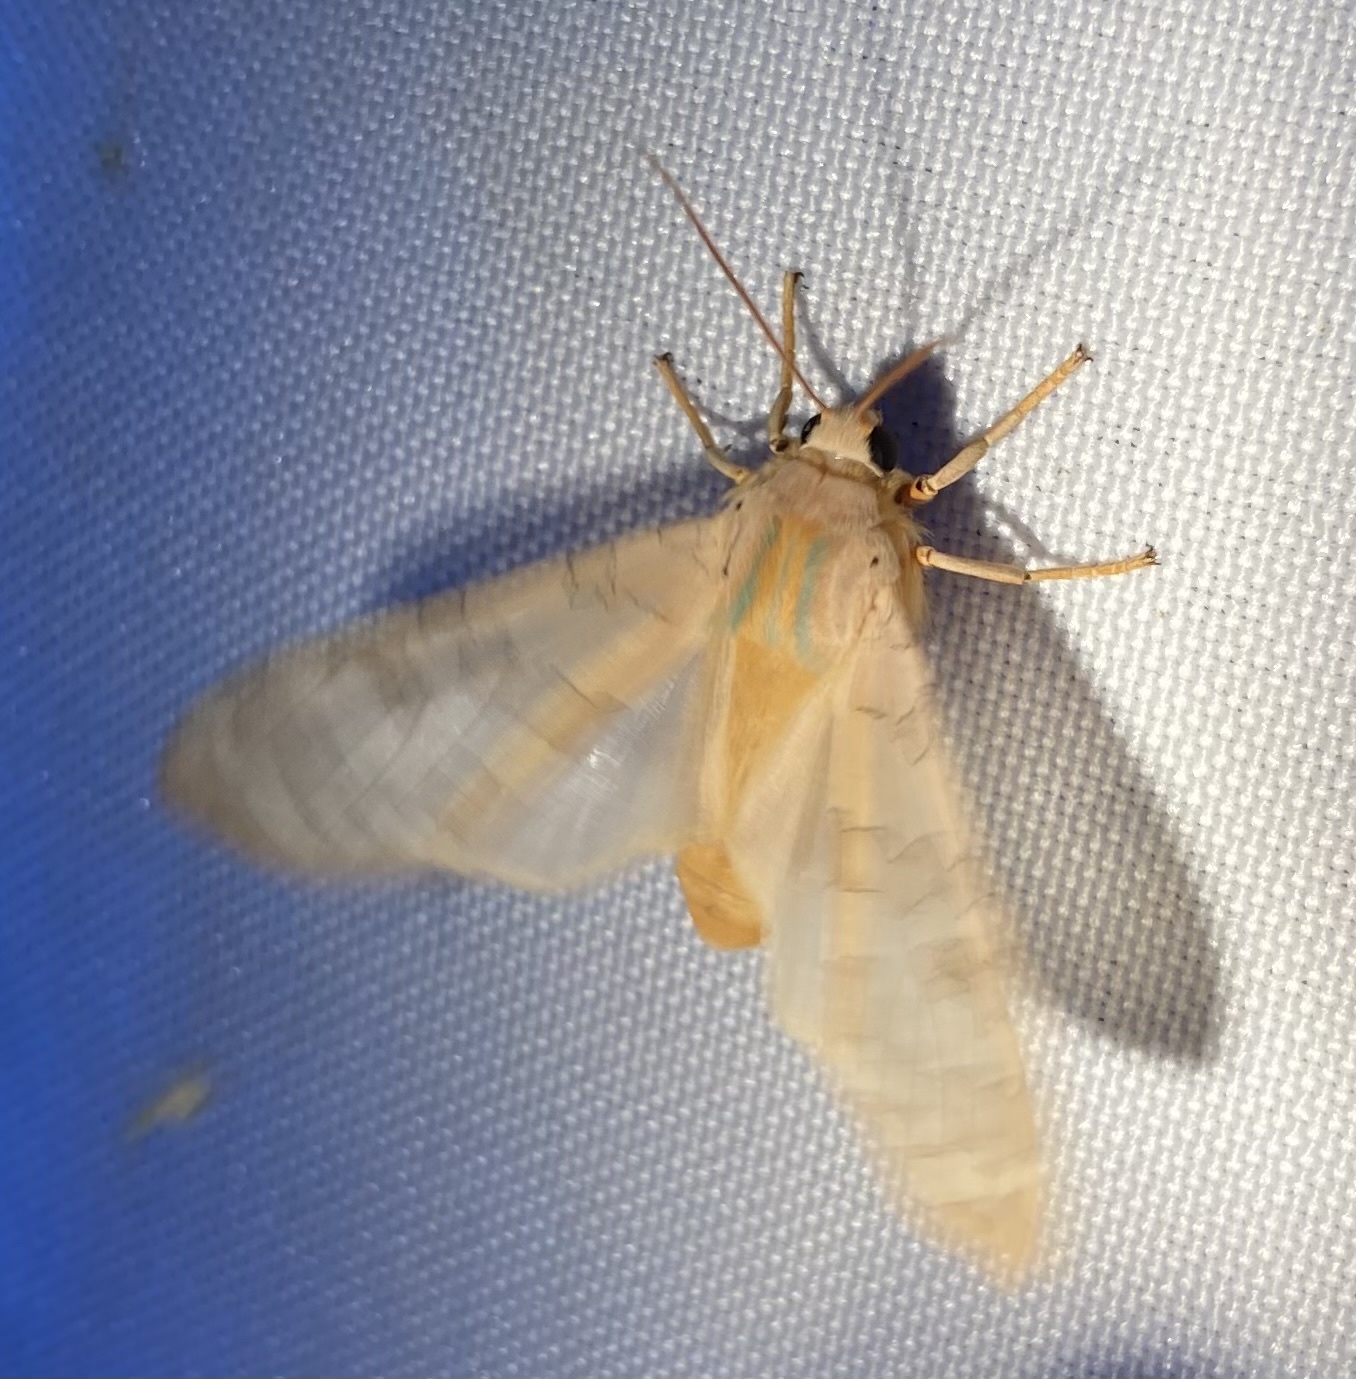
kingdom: Animalia
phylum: Arthropoda
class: Insecta
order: Lepidoptera
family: Erebidae
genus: Halysidota
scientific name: Halysidota
